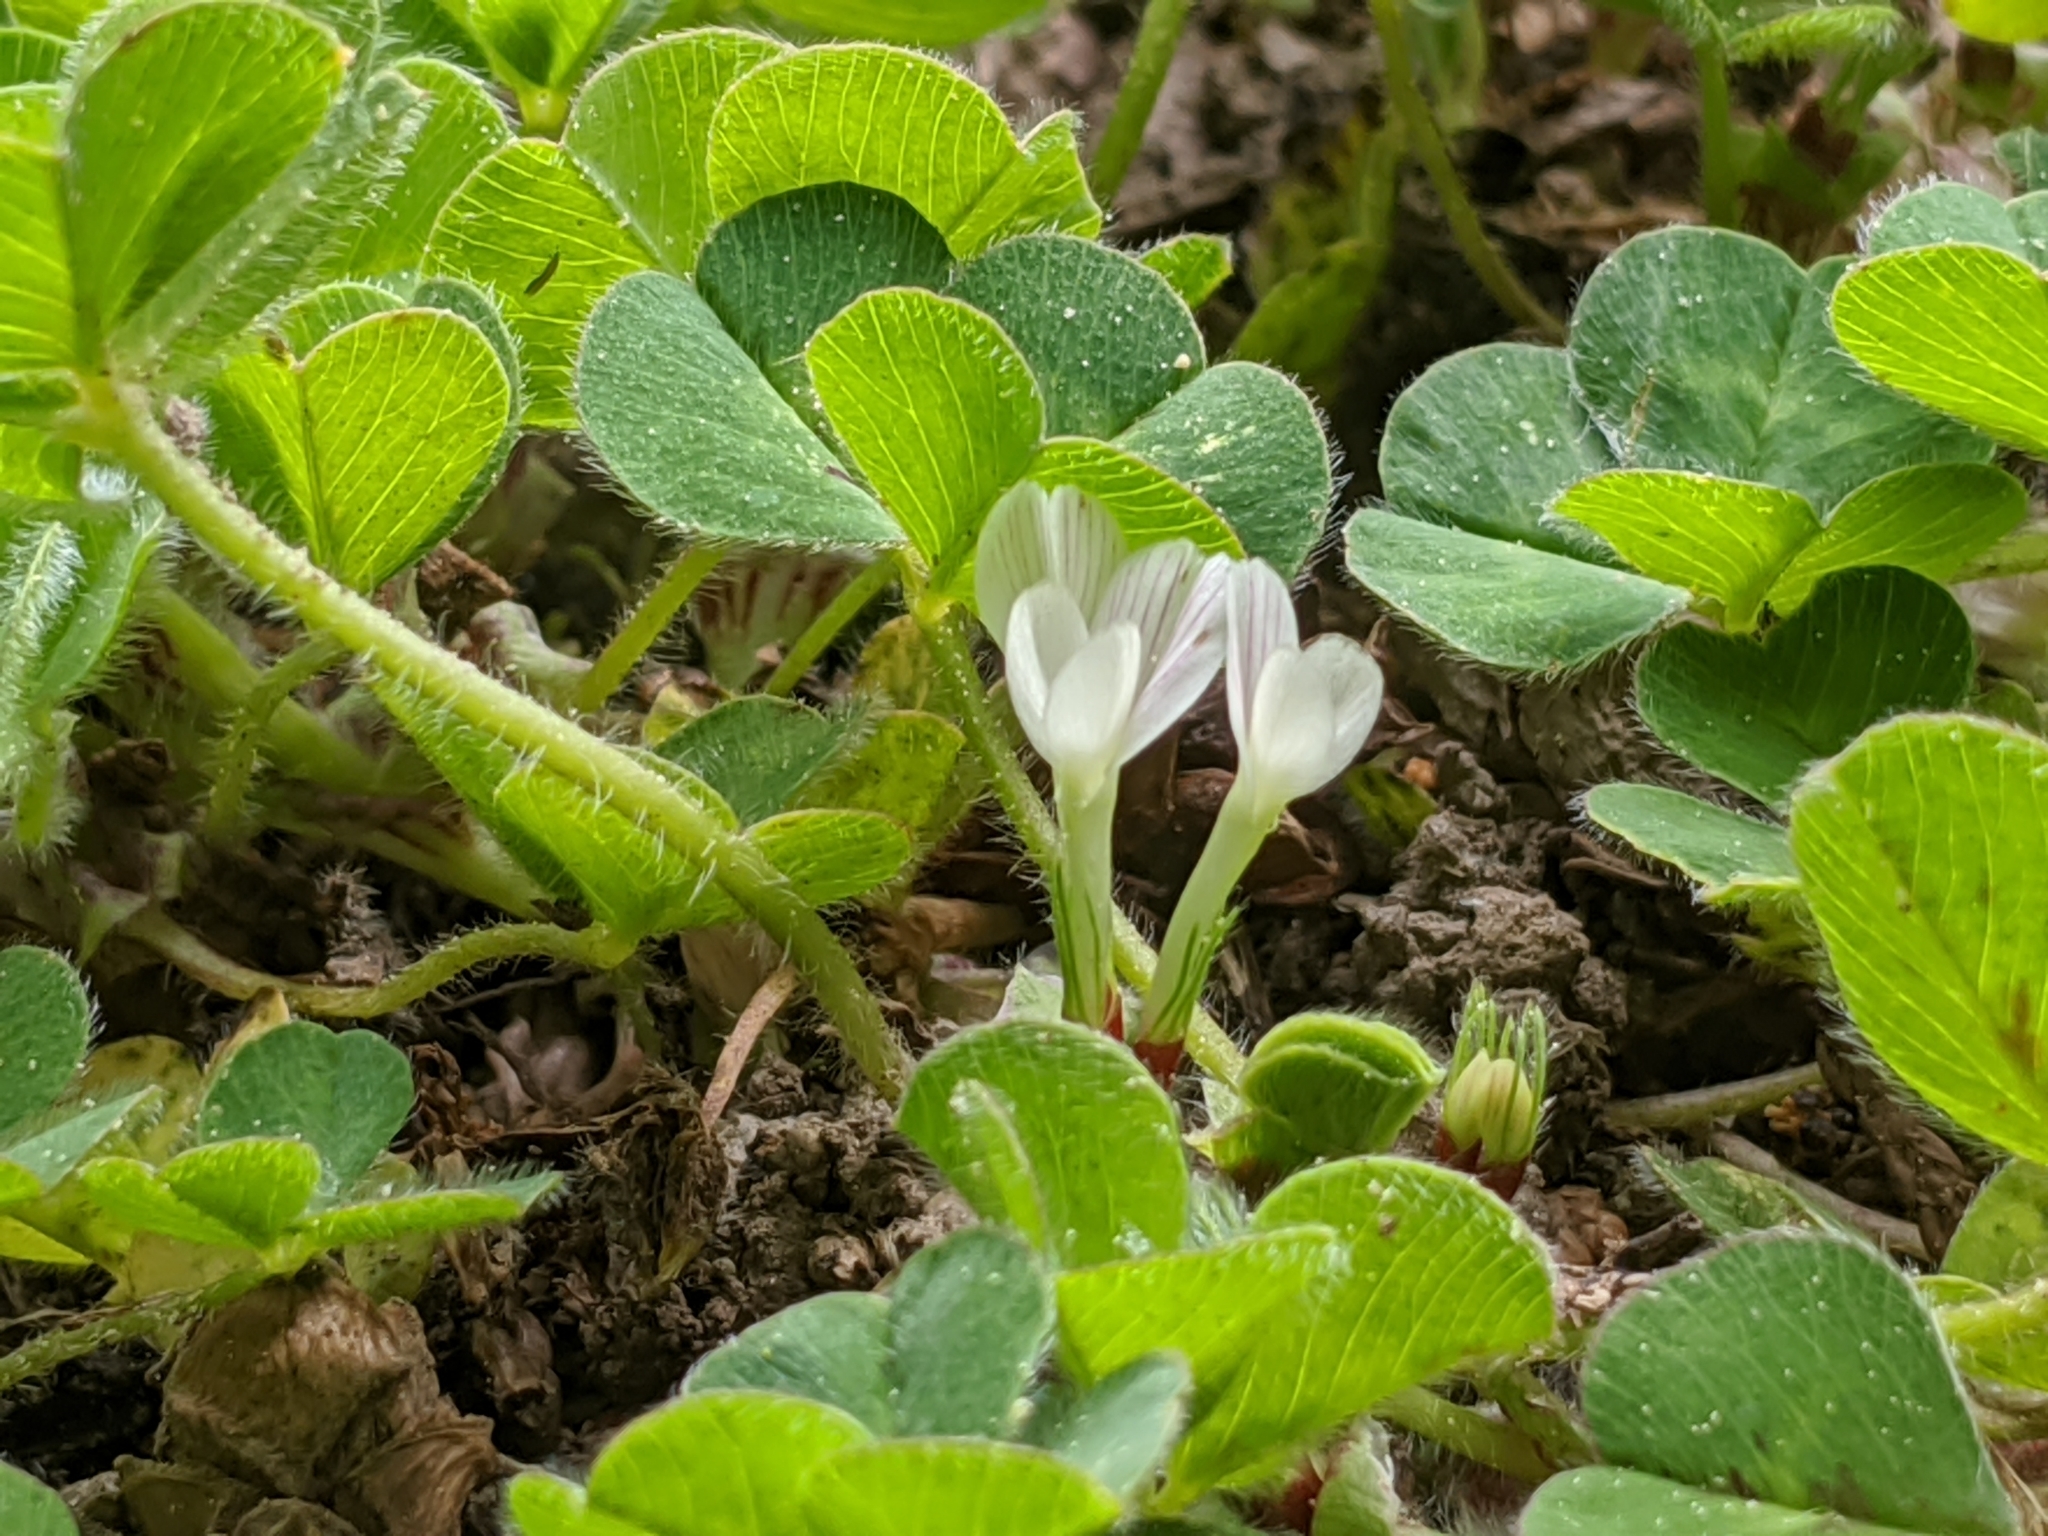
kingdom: Plantae
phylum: Tracheophyta
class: Magnoliopsida
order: Fabales
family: Fabaceae
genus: Trifolium
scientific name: Trifolium subterraneum
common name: Subterranean clover
